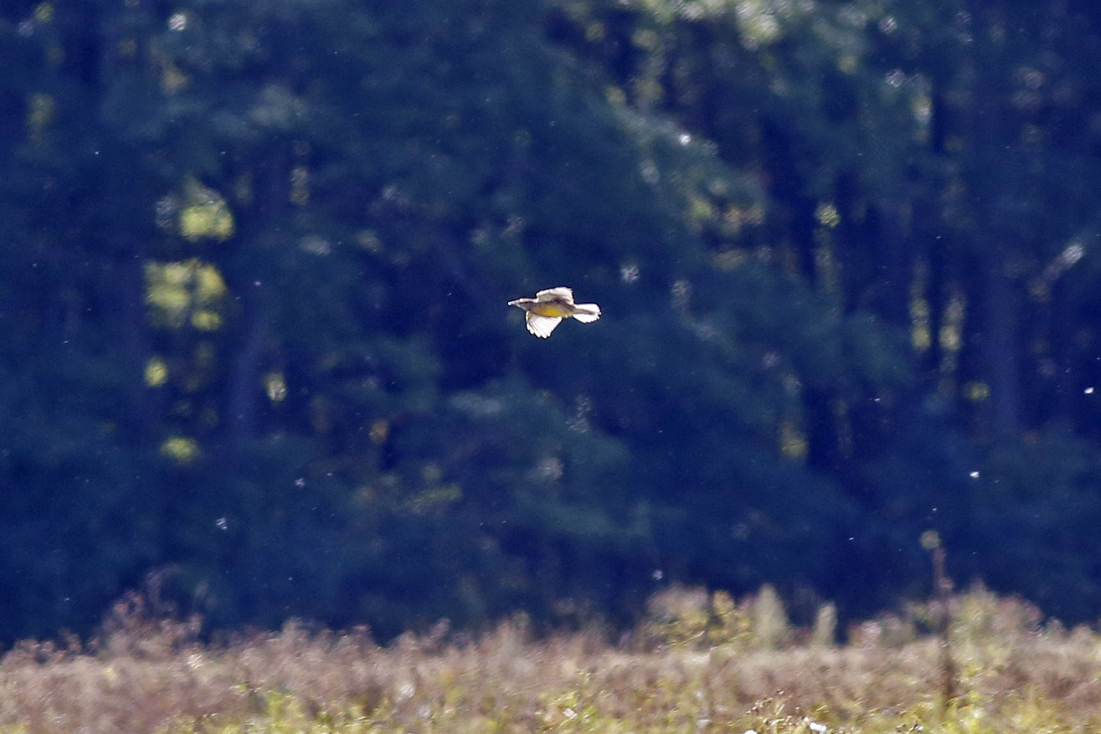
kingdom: Animalia
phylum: Chordata
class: Aves
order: Passeriformes
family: Icteridae
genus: Sturnella
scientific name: Sturnella magna
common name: Eastern meadowlark
